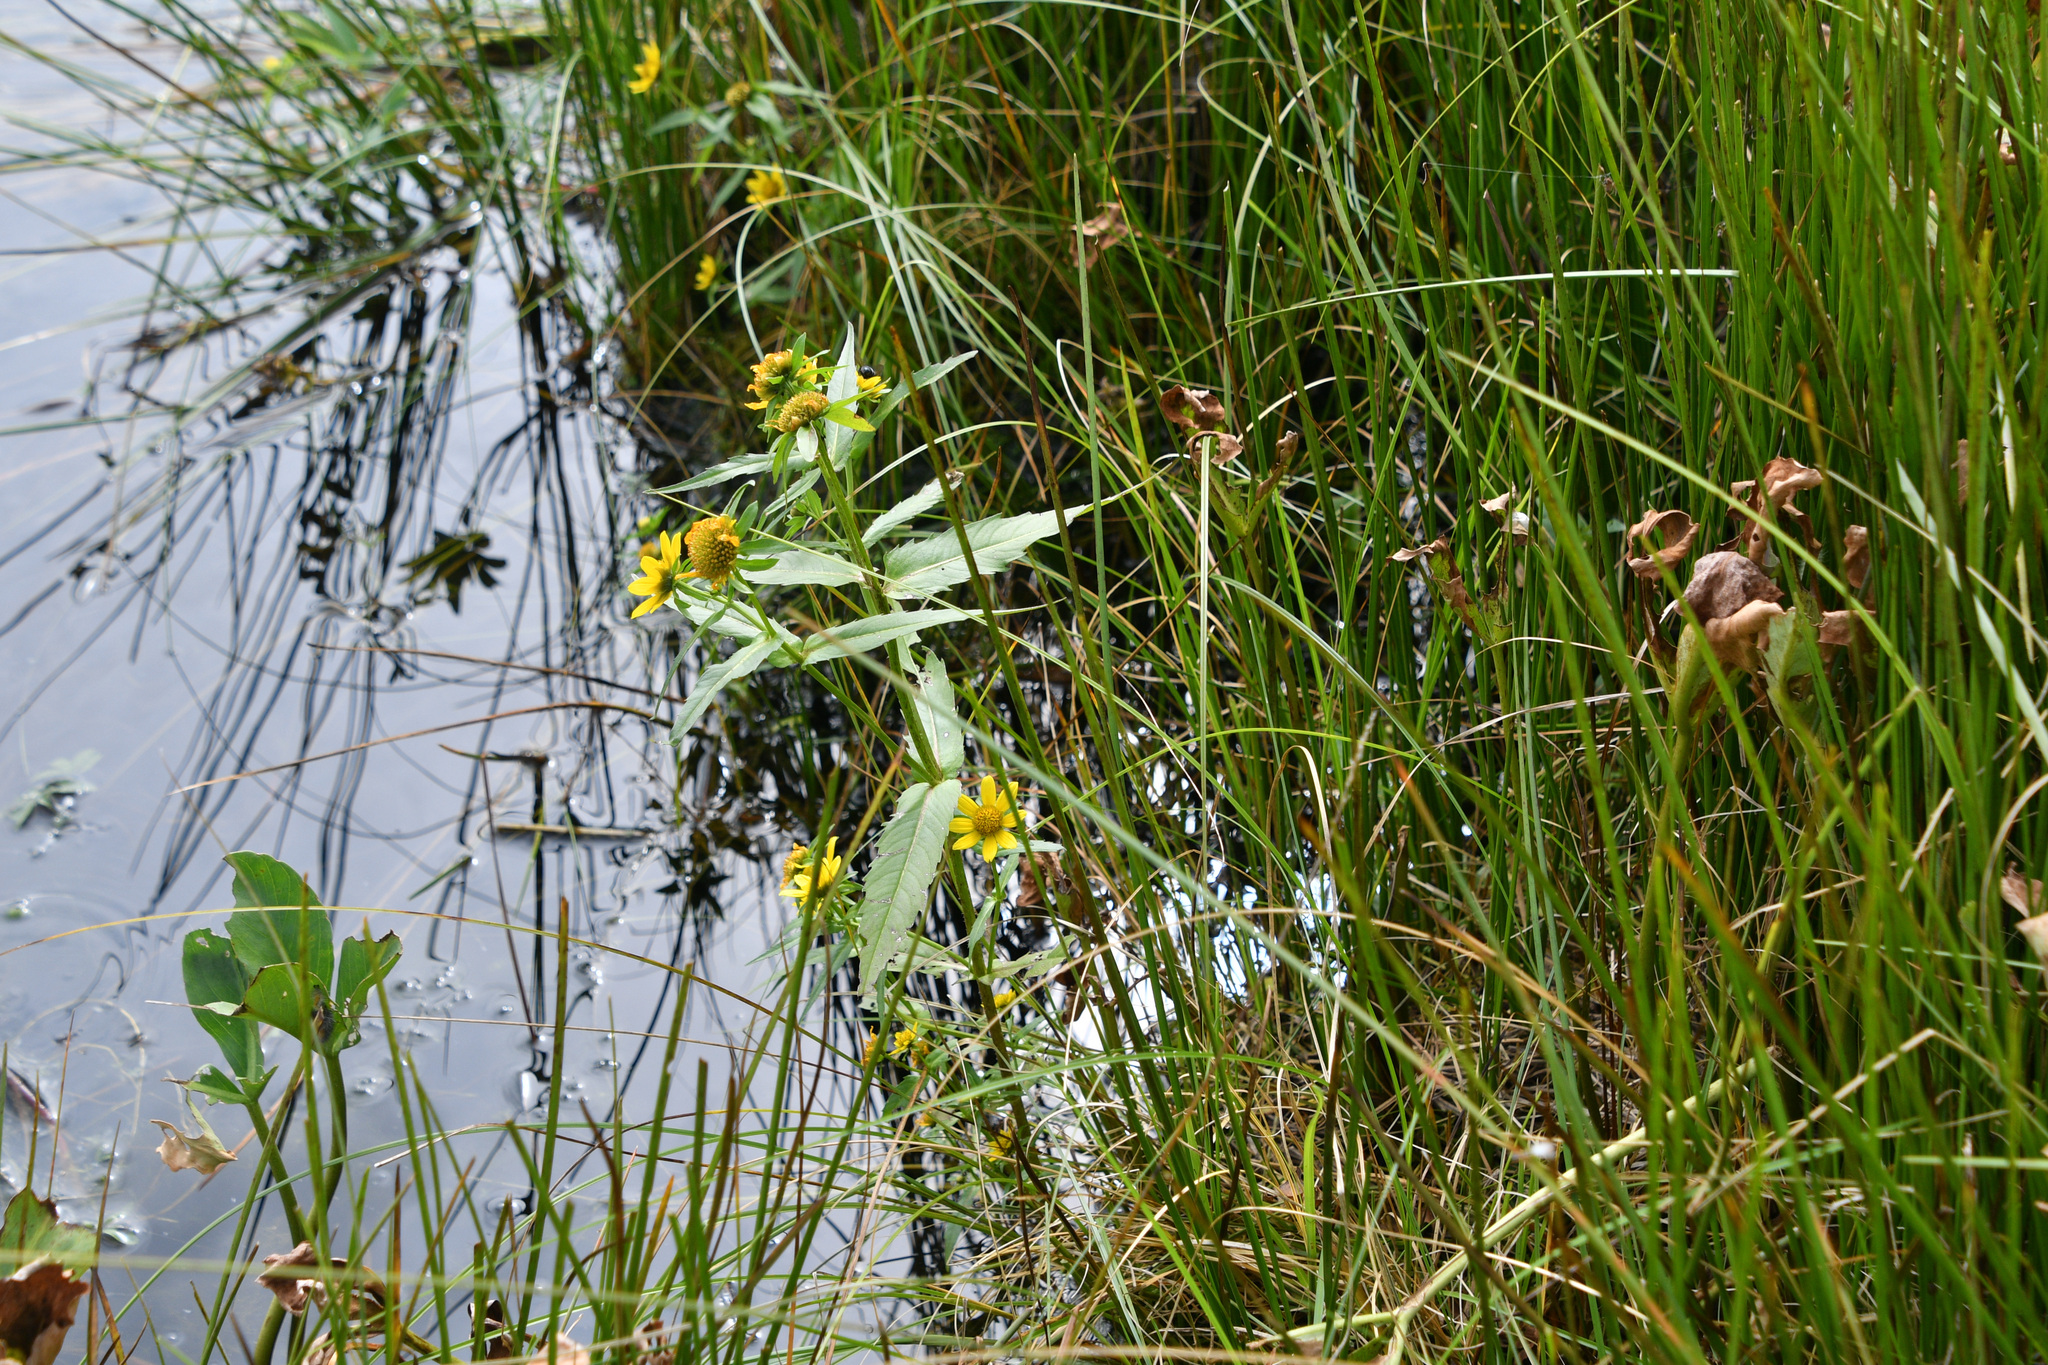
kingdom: Plantae
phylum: Tracheophyta
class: Magnoliopsida
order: Asterales
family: Asteraceae
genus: Bidens
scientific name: Bidens cernua
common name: Nodding bur-marigold
